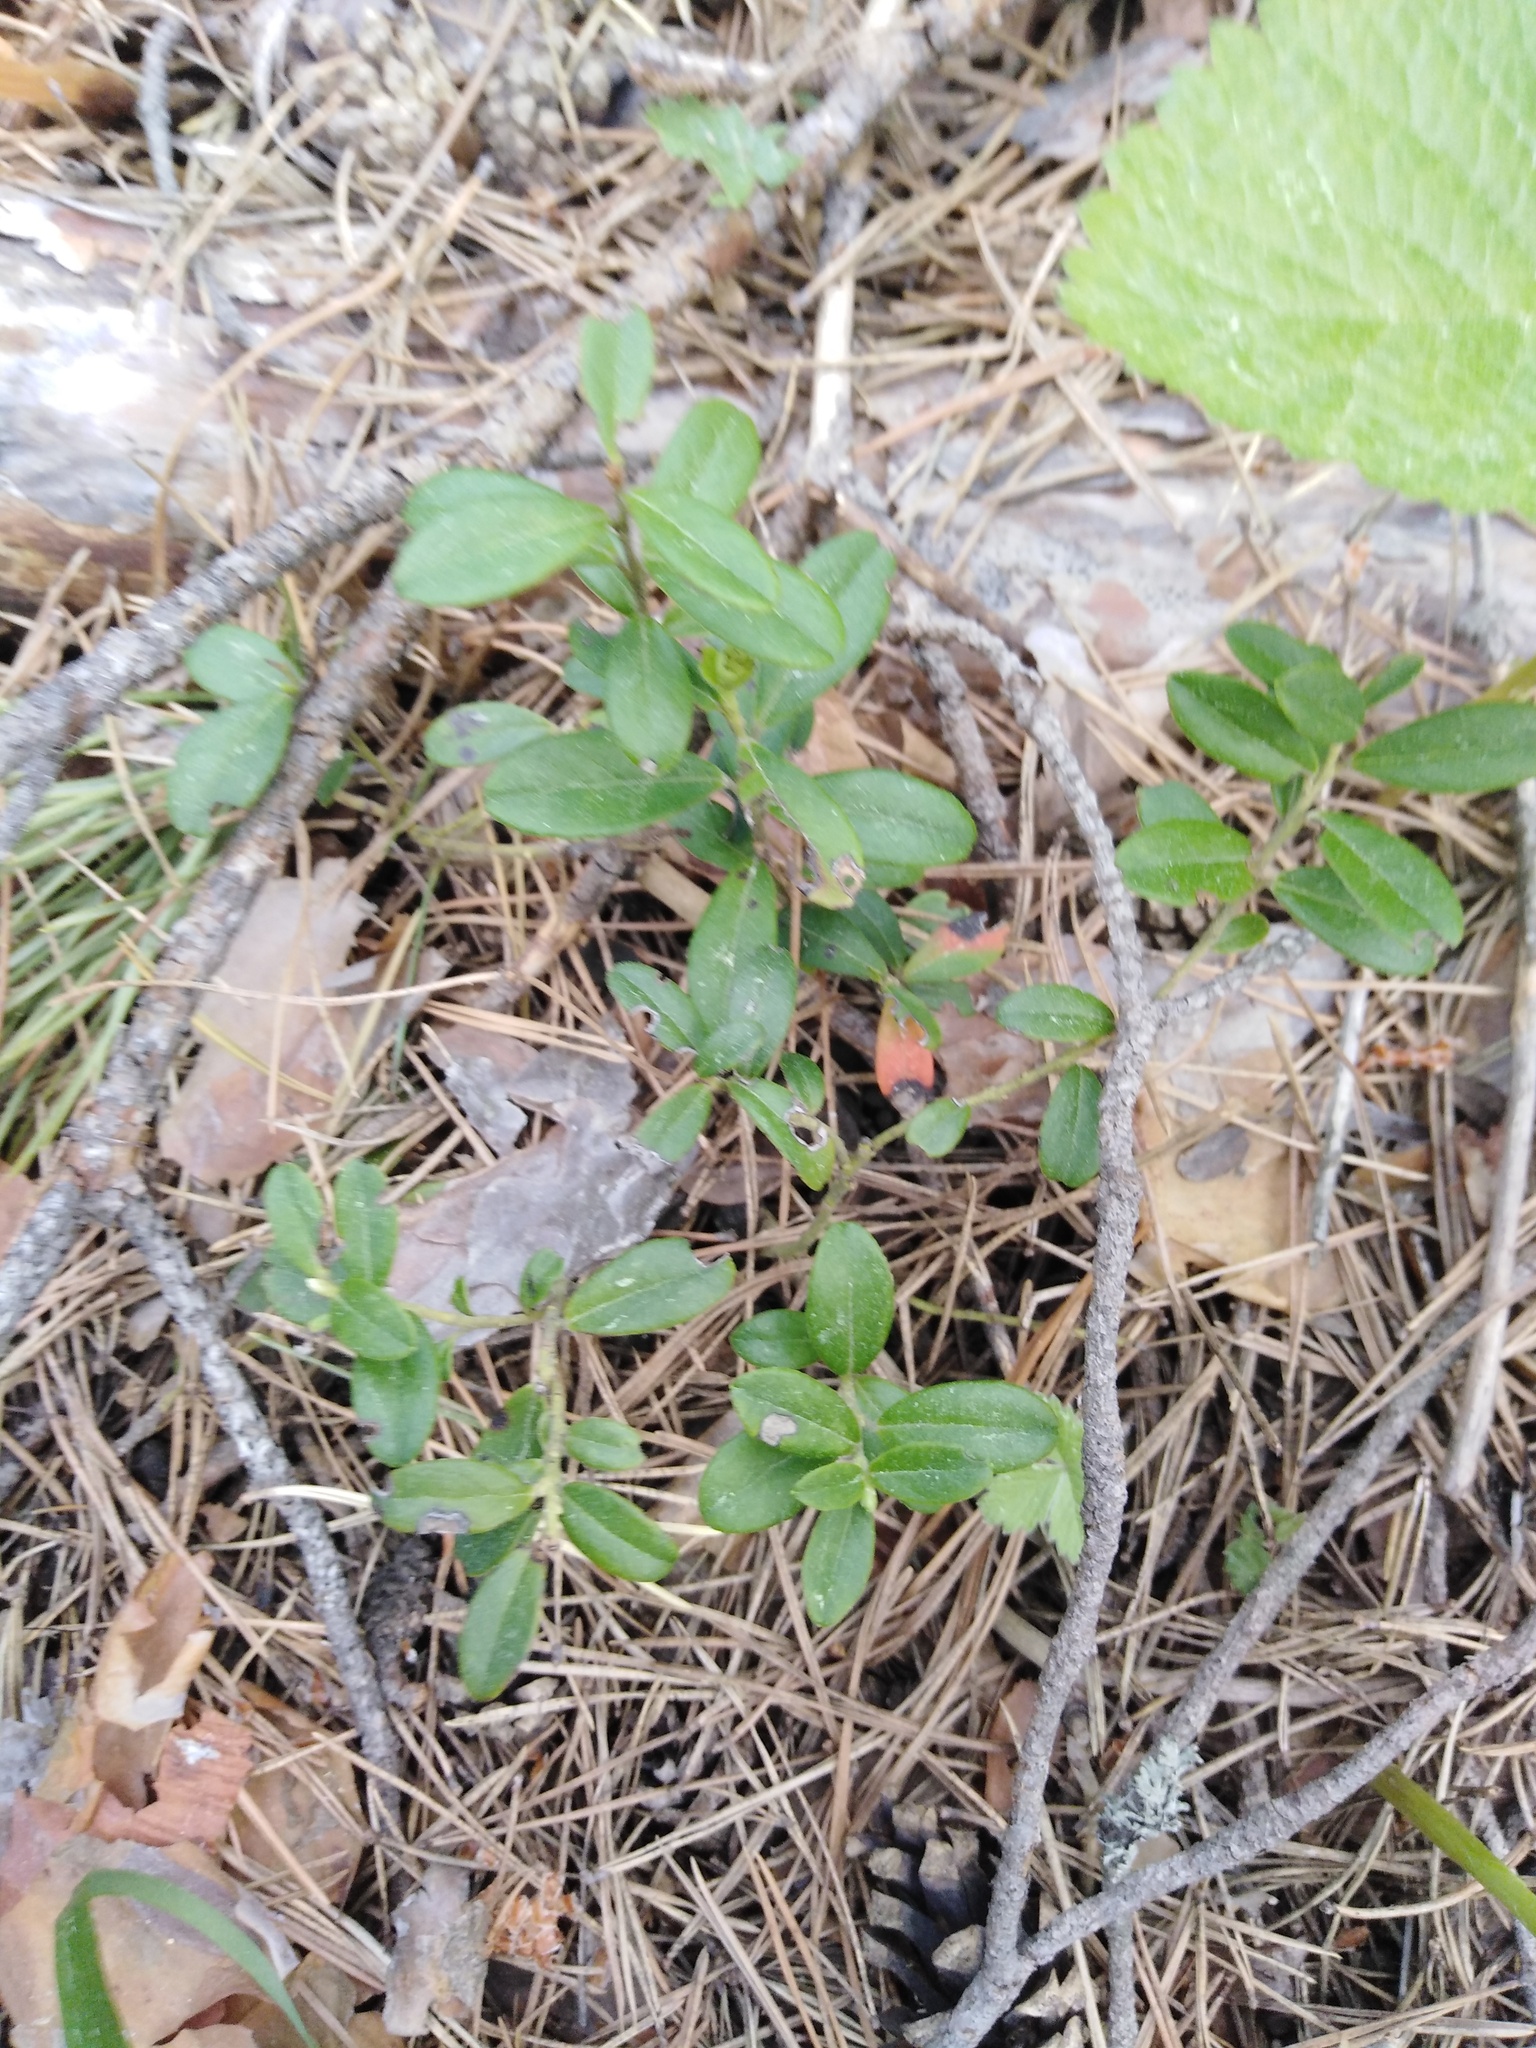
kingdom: Plantae
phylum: Tracheophyta
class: Magnoliopsida
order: Ericales
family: Ericaceae
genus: Vaccinium
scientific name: Vaccinium vitis-idaea
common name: Cowberry
